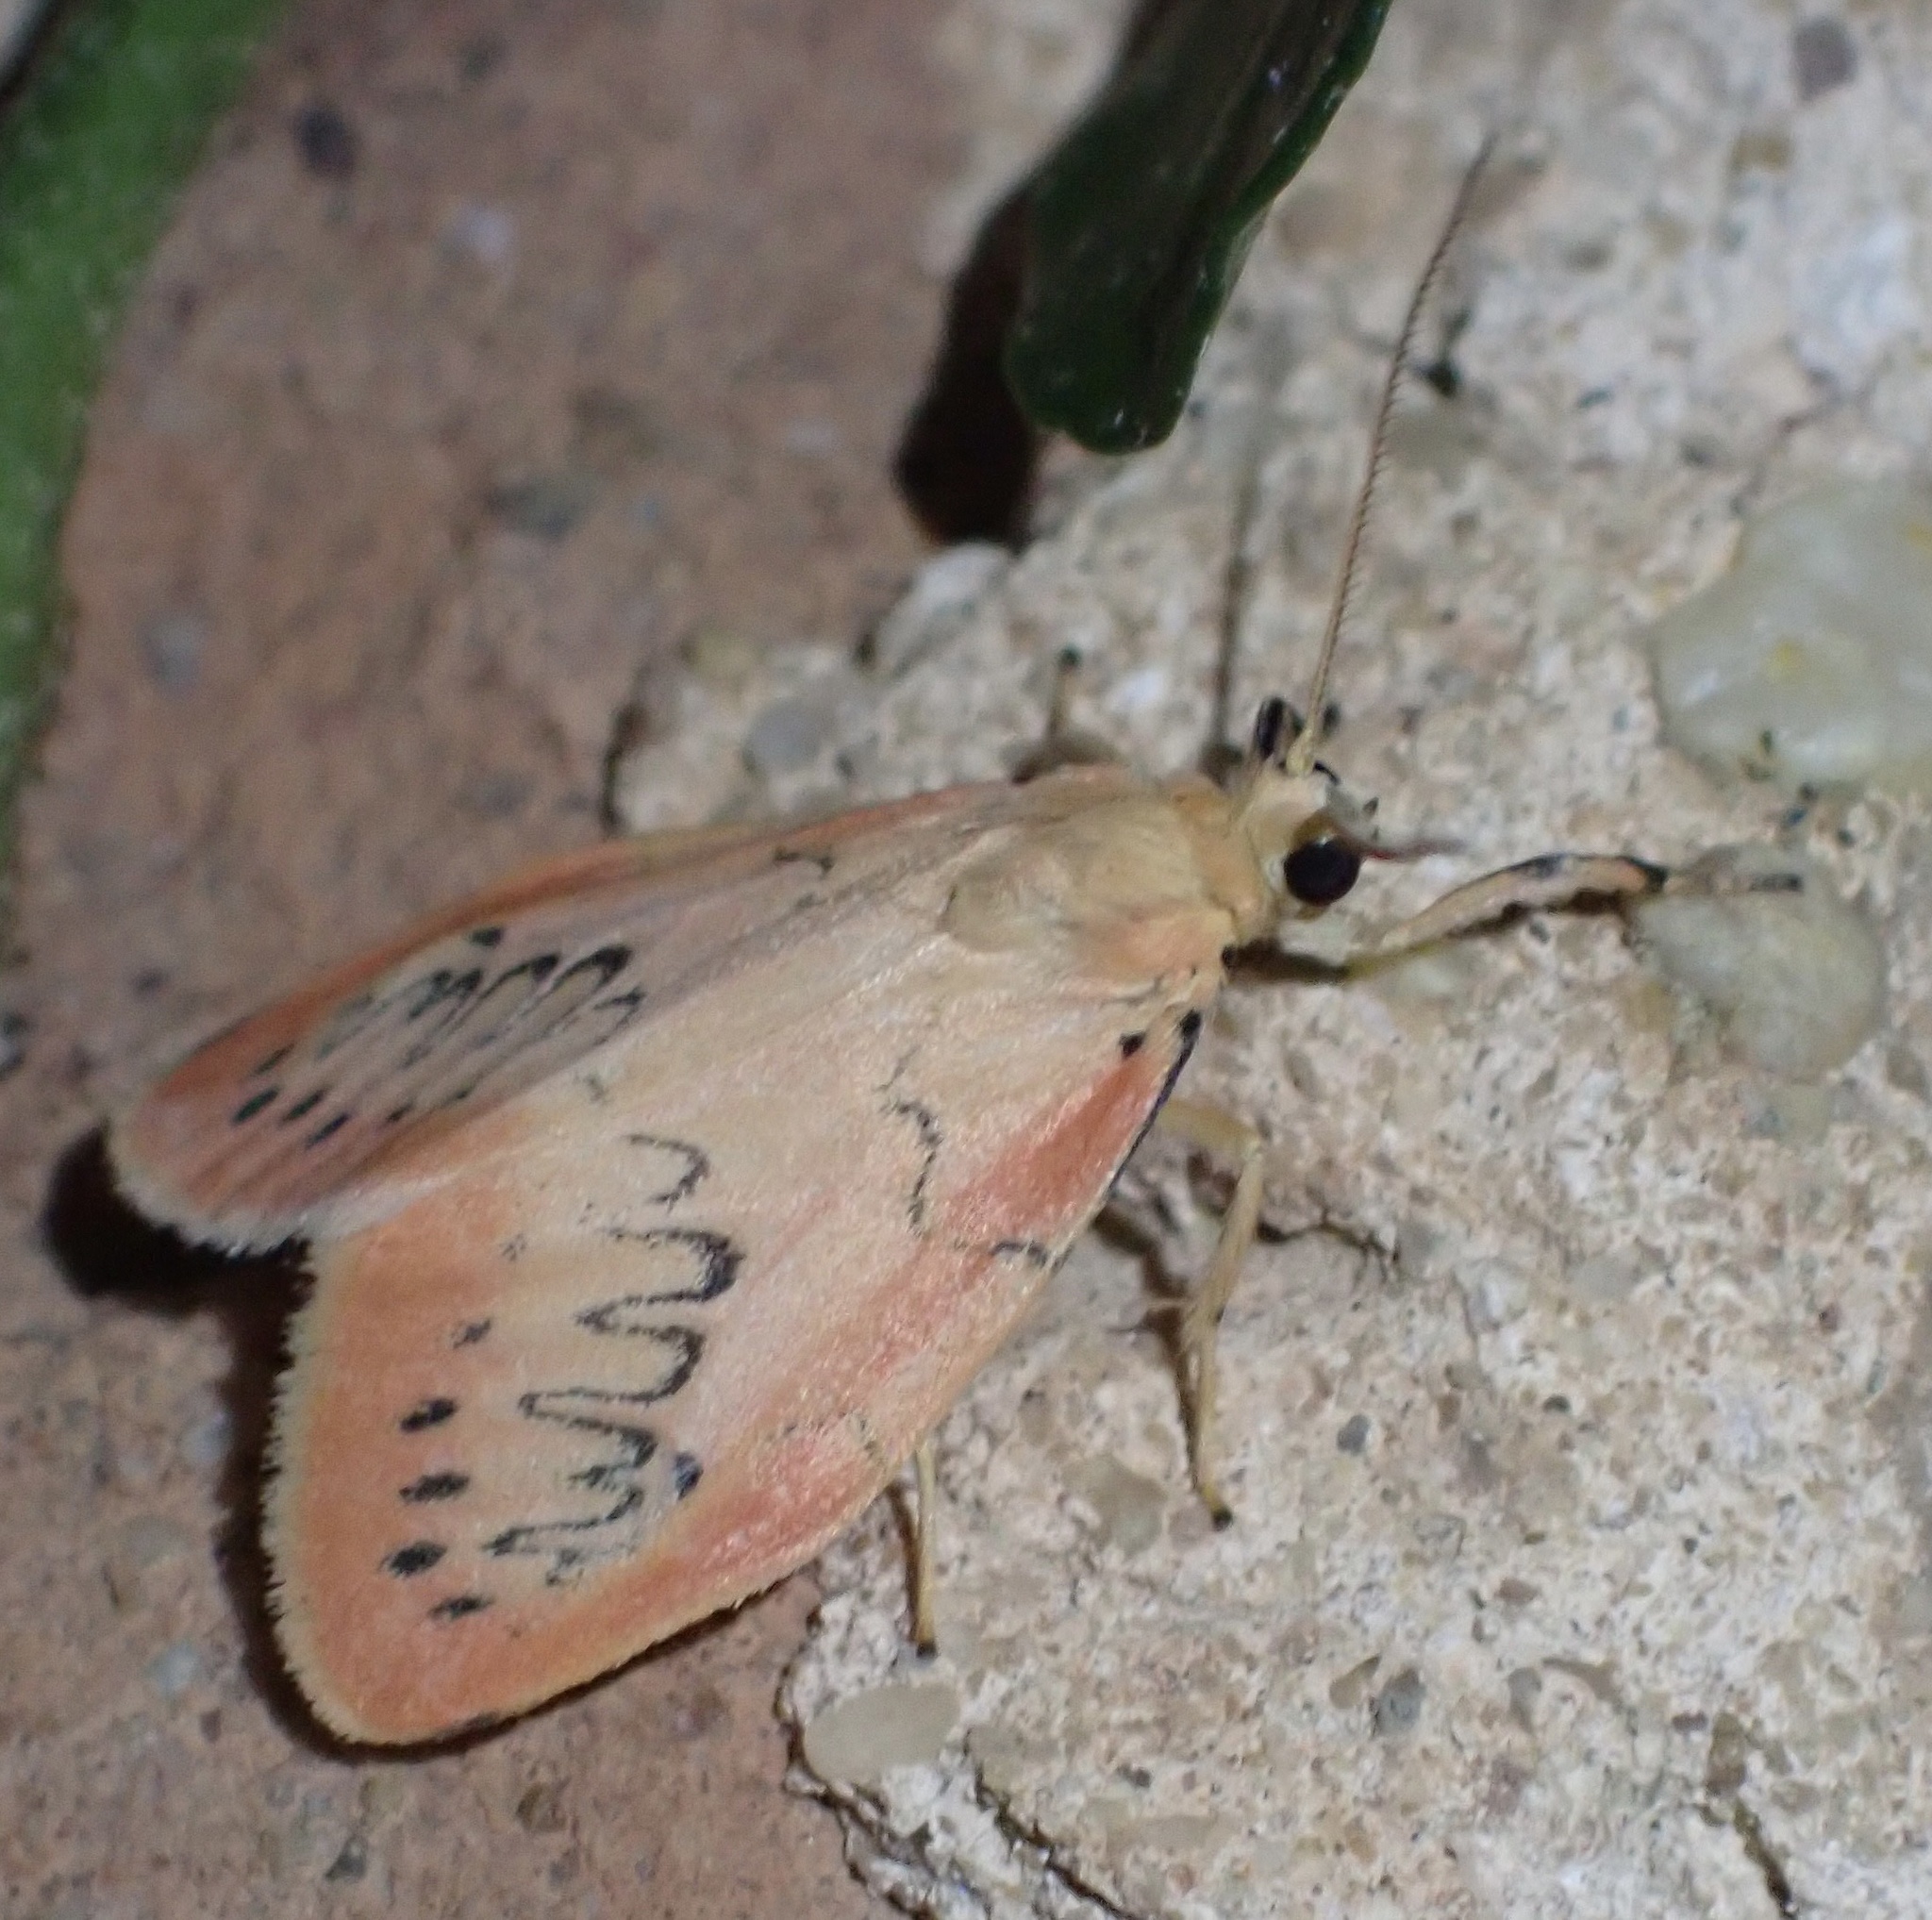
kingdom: Animalia
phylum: Arthropoda
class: Insecta
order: Lepidoptera
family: Erebidae
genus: Miltochrista
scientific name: Miltochrista miniata
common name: Rosy footman
